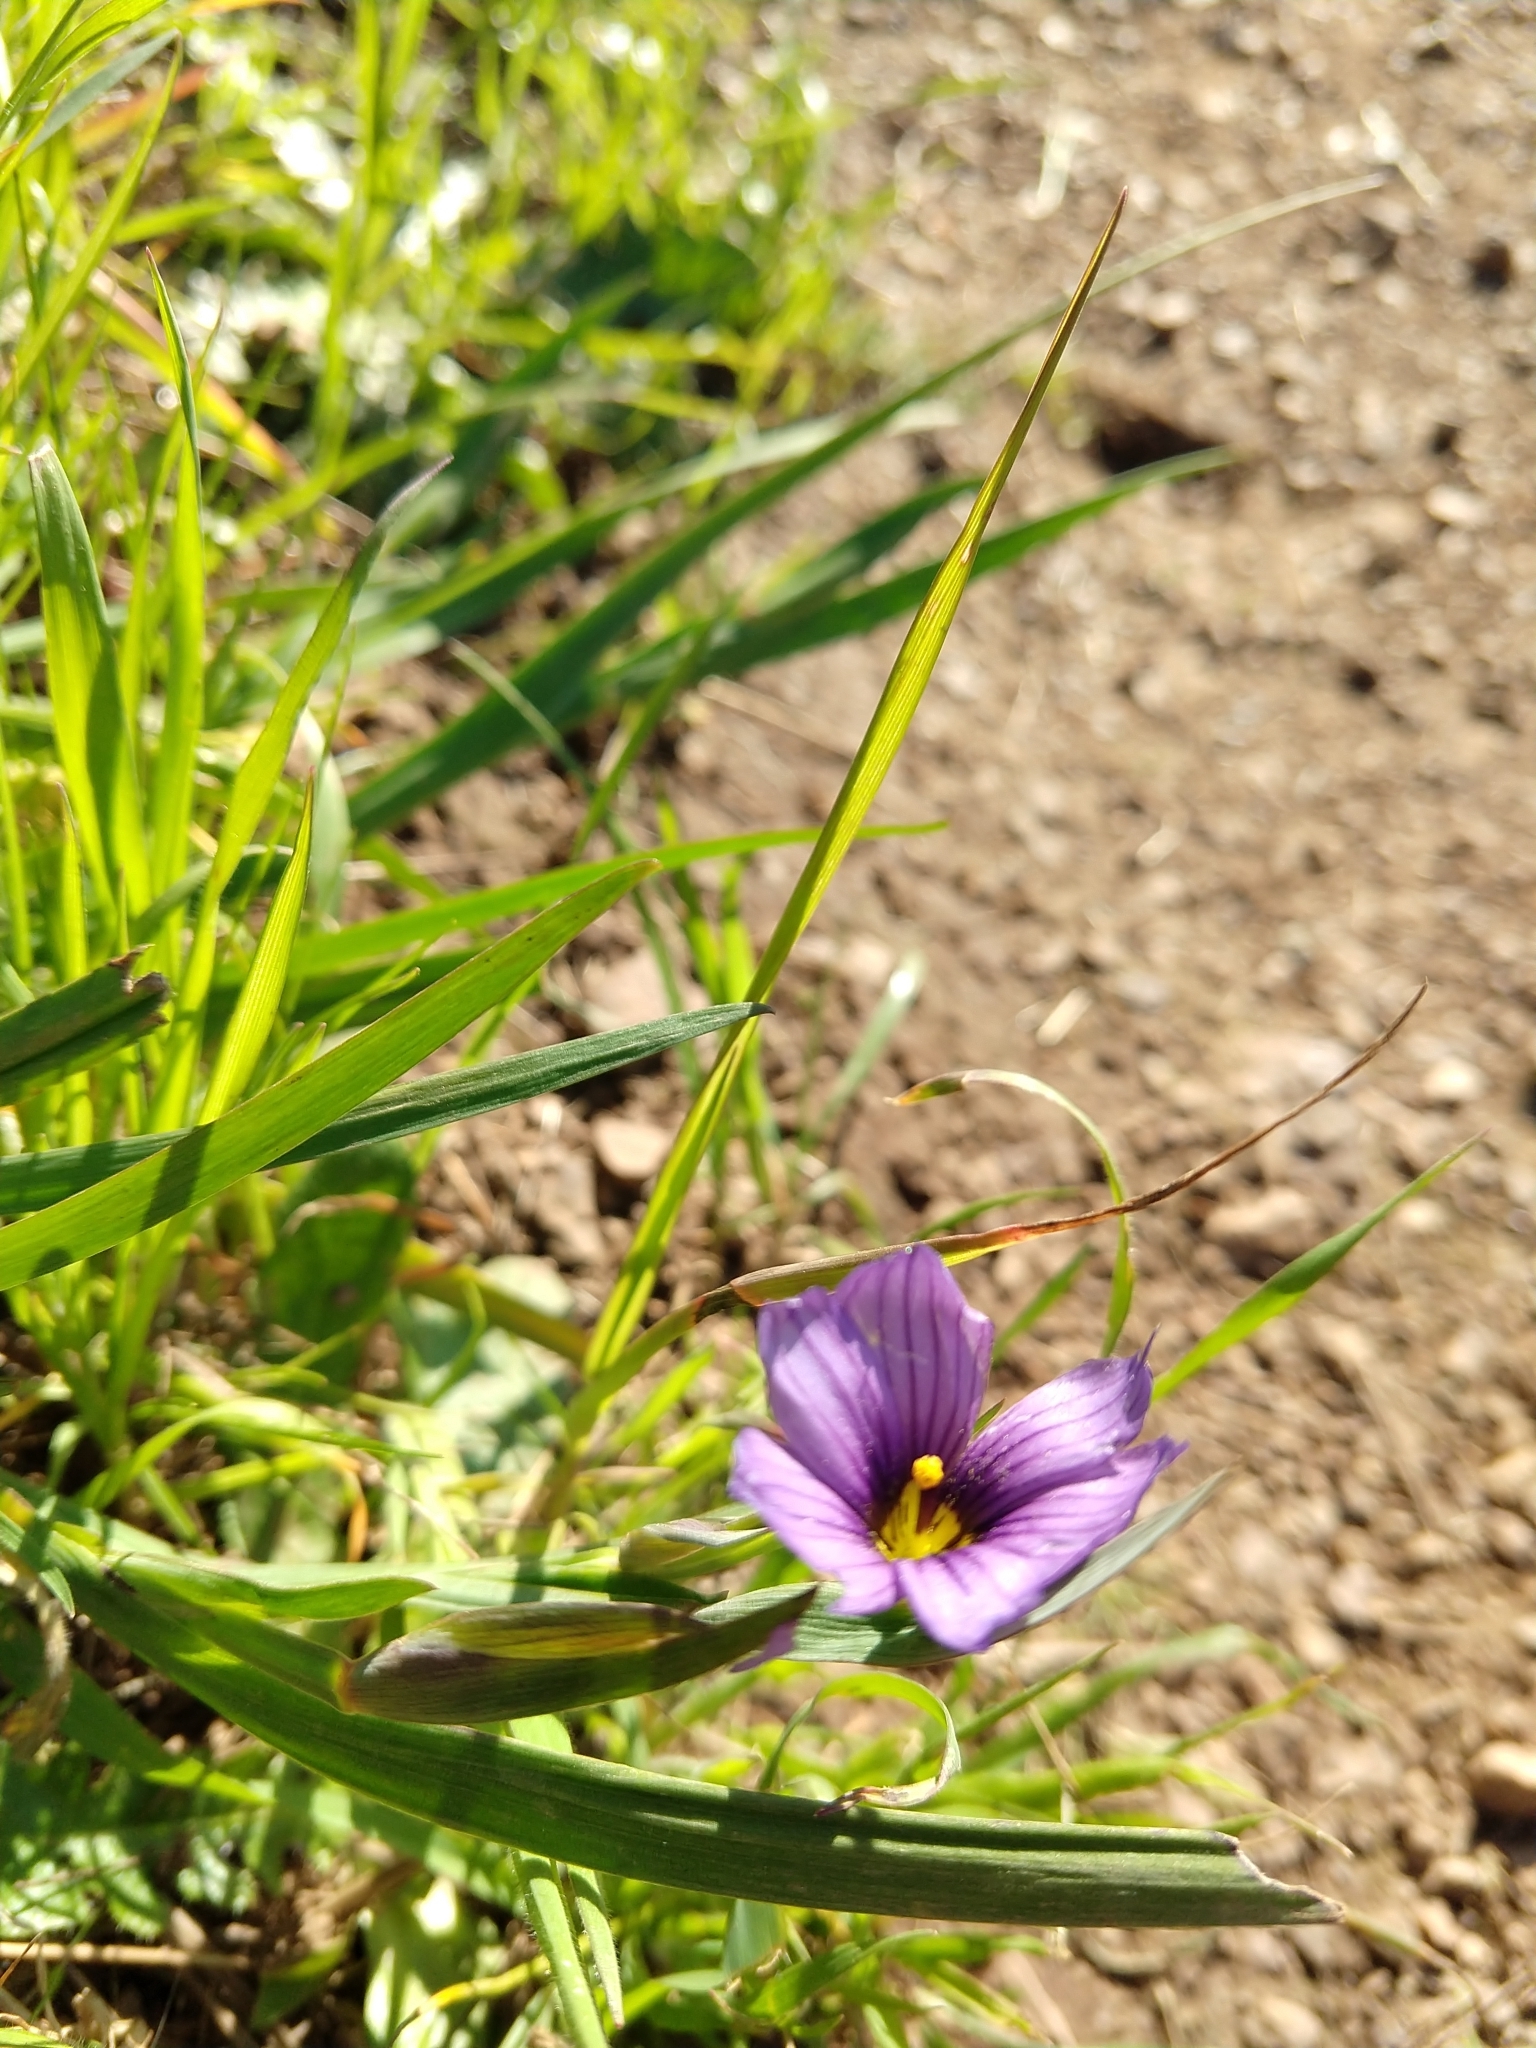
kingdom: Plantae
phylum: Tracheophyta
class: Liliopsida
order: Asparagales
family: Iridaceae
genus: Sisyrinchium
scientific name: Sisyrinchium bellum
